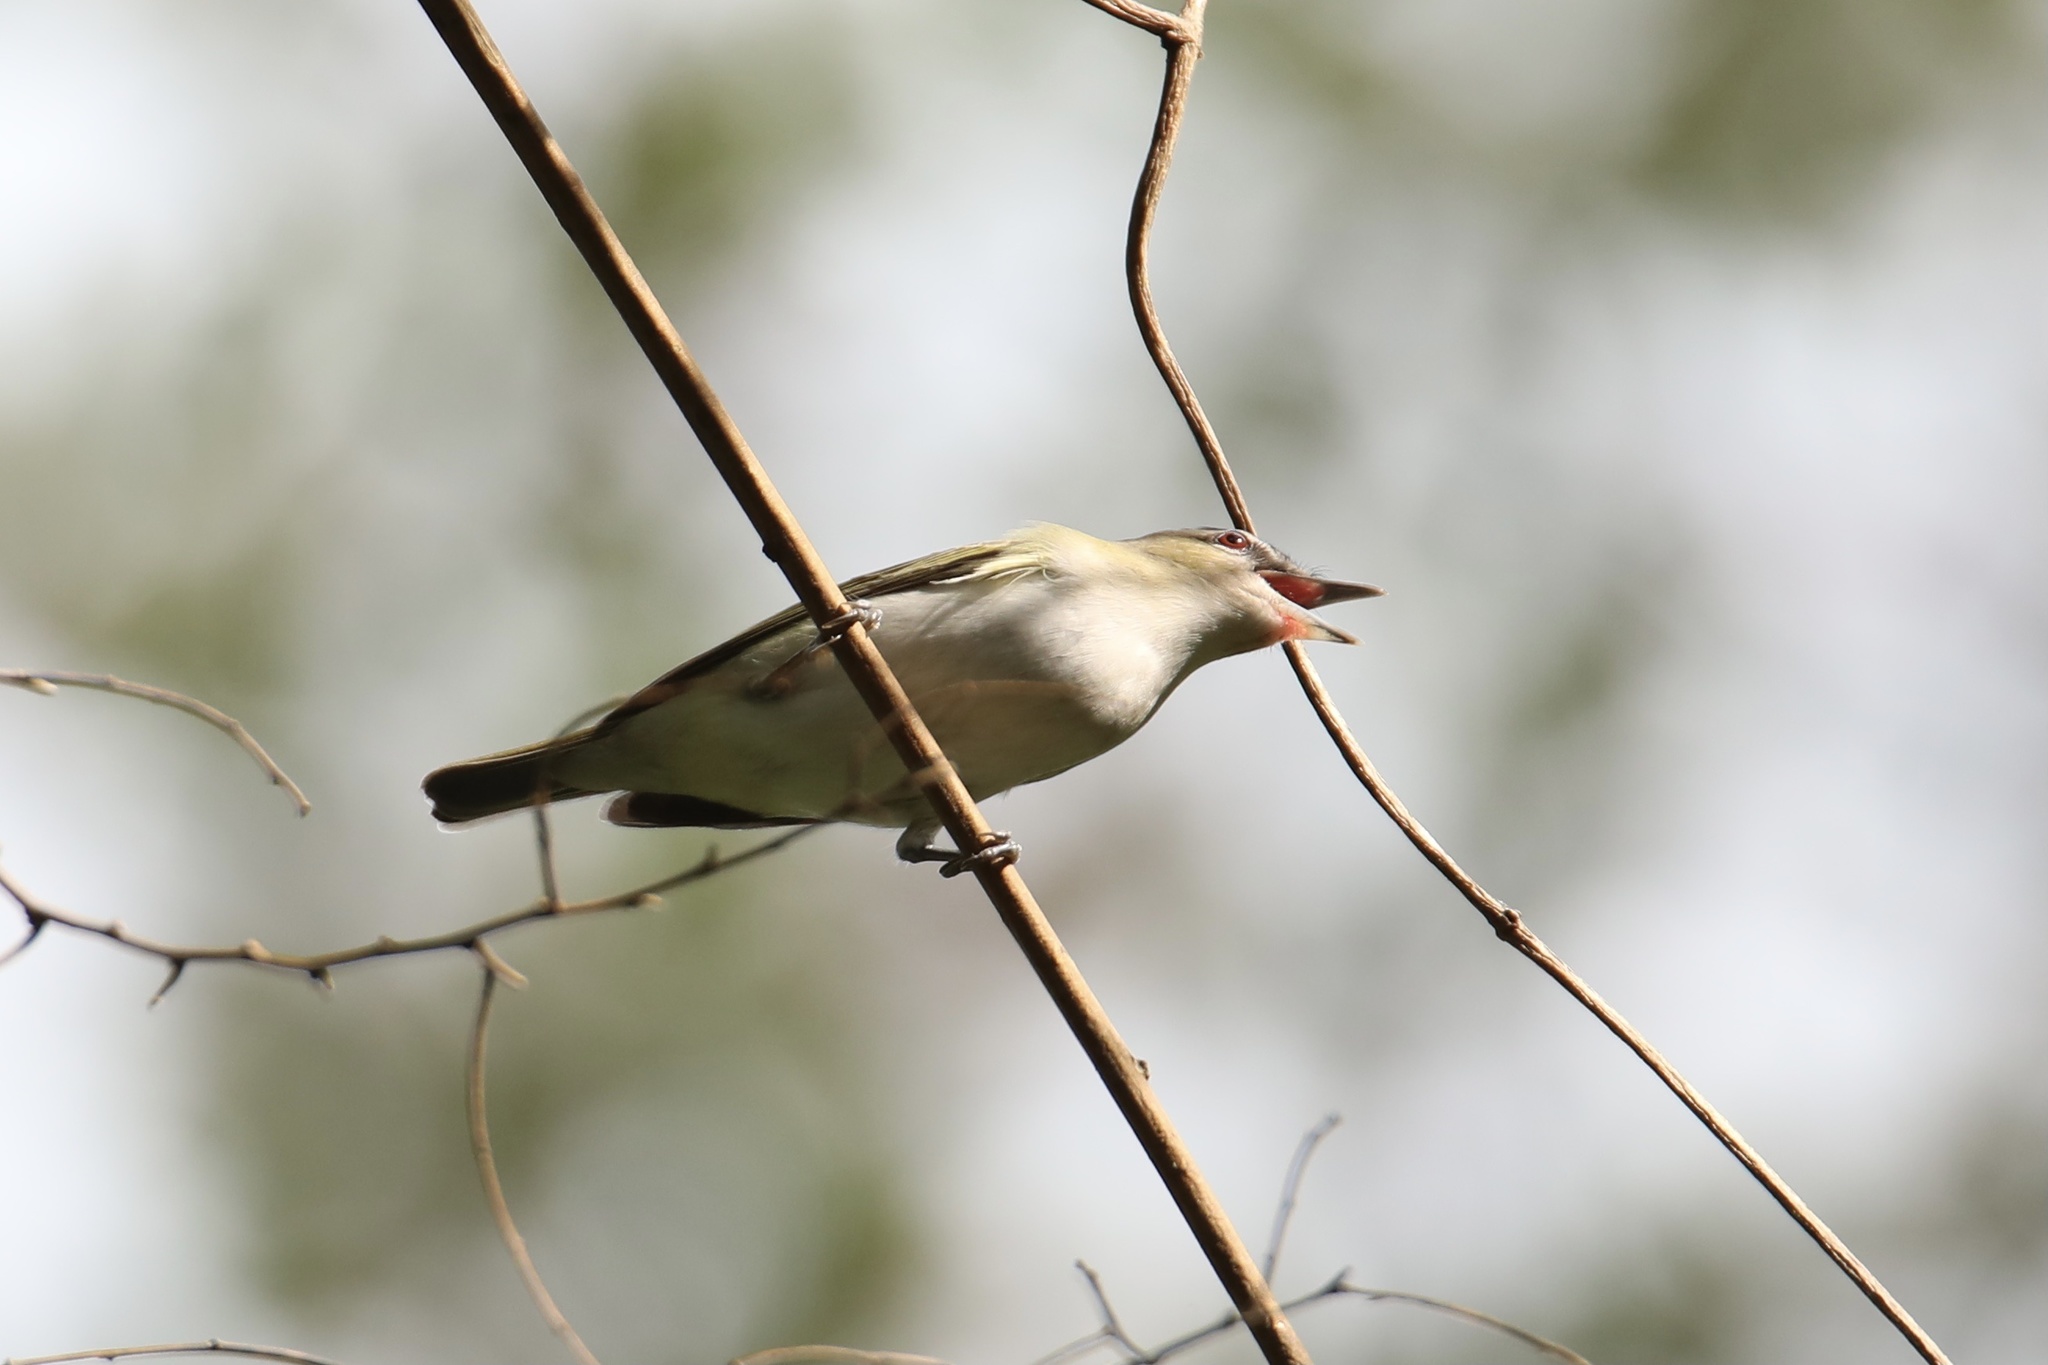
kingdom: Animalia
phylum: Chordata
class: Aves
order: Passeriformes
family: Vireonidae
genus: Vireo
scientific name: Vireo olivaceus
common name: Red-eyed vireo
